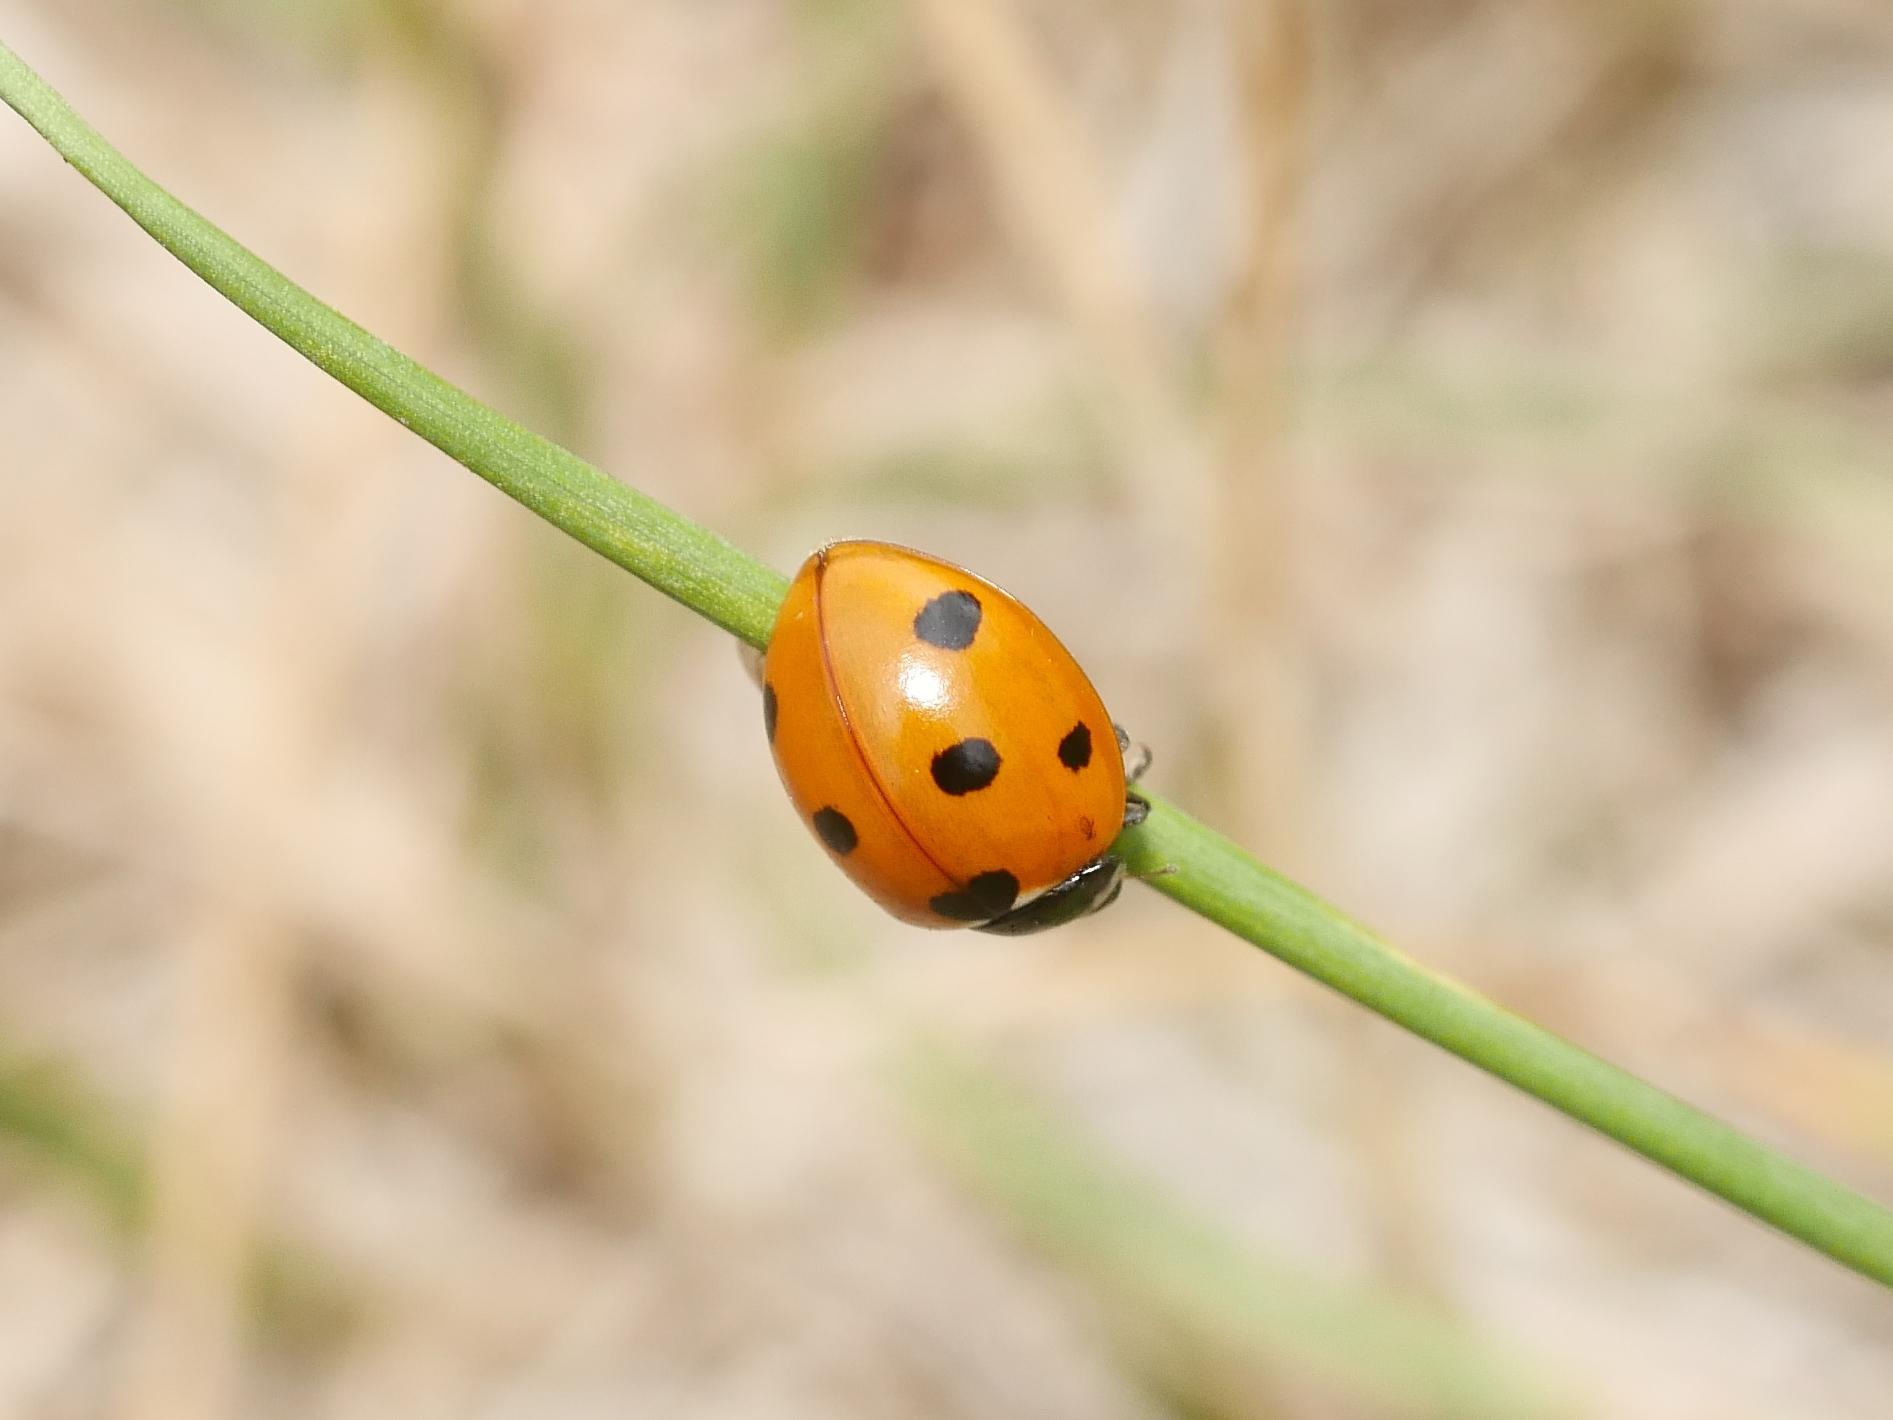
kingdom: Animalia
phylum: Arthropoda
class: Insecta
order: Coleoptera
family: Coccinellidae
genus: Coccinella
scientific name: Coccinella septempunctata
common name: Sevenspotted lady beetle
